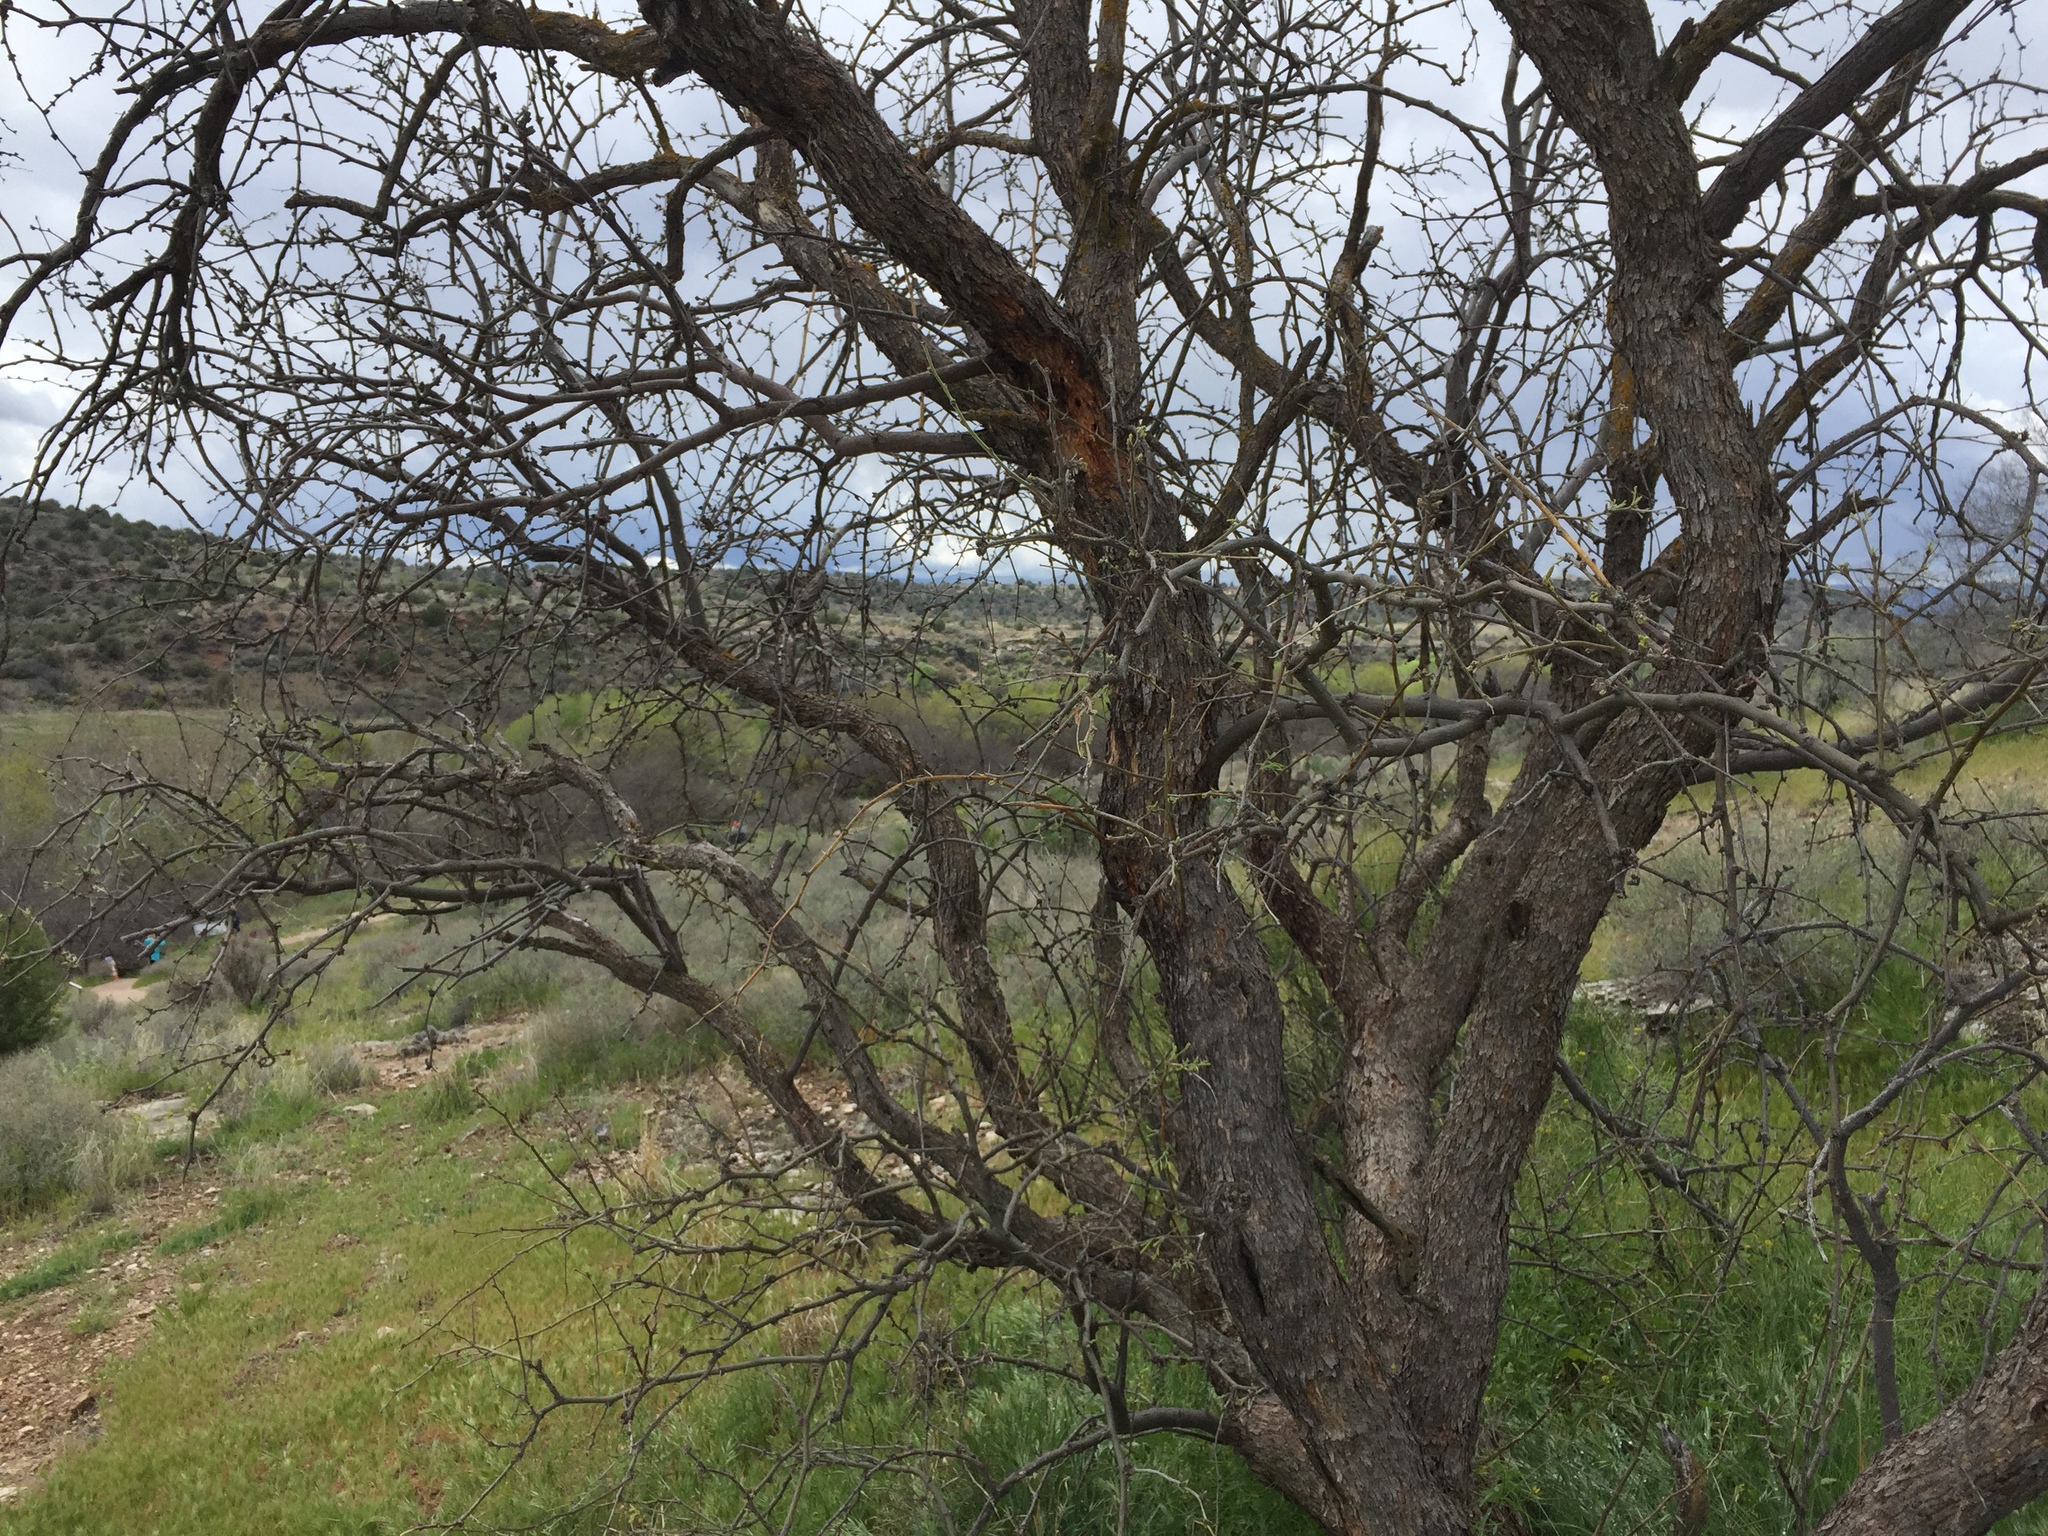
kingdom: Plantae
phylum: Tracheophyta
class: Magnoliopsida
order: Fabales
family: Fabaceae
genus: Prosopis
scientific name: Prosopis velutina
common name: Velvet mesquite
